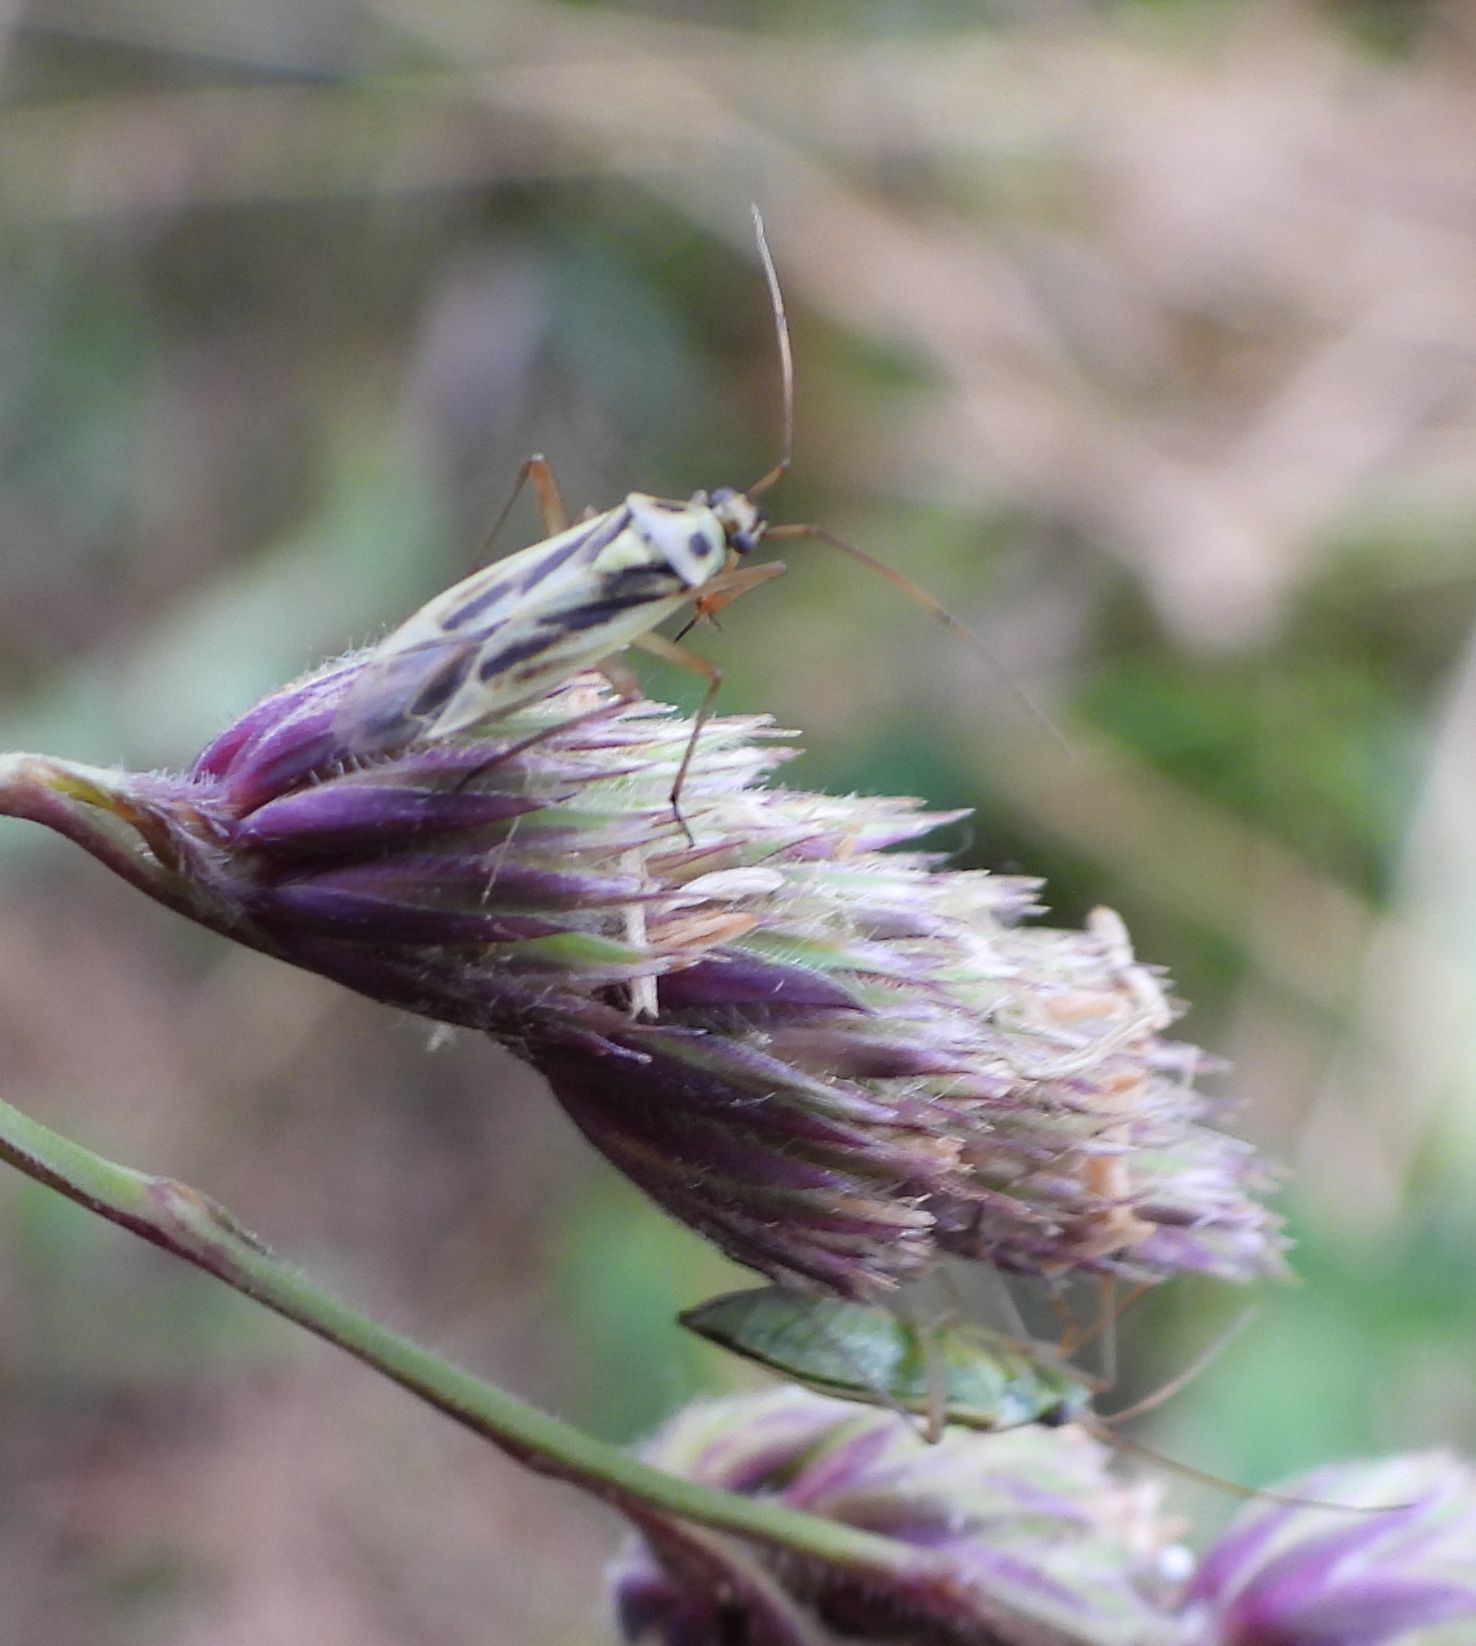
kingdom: Animalia
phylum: Arthropoda
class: Insecta
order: Hemiptera
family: Miridae
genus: Stenotus
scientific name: Stenotus binotatus
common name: Plant bug
